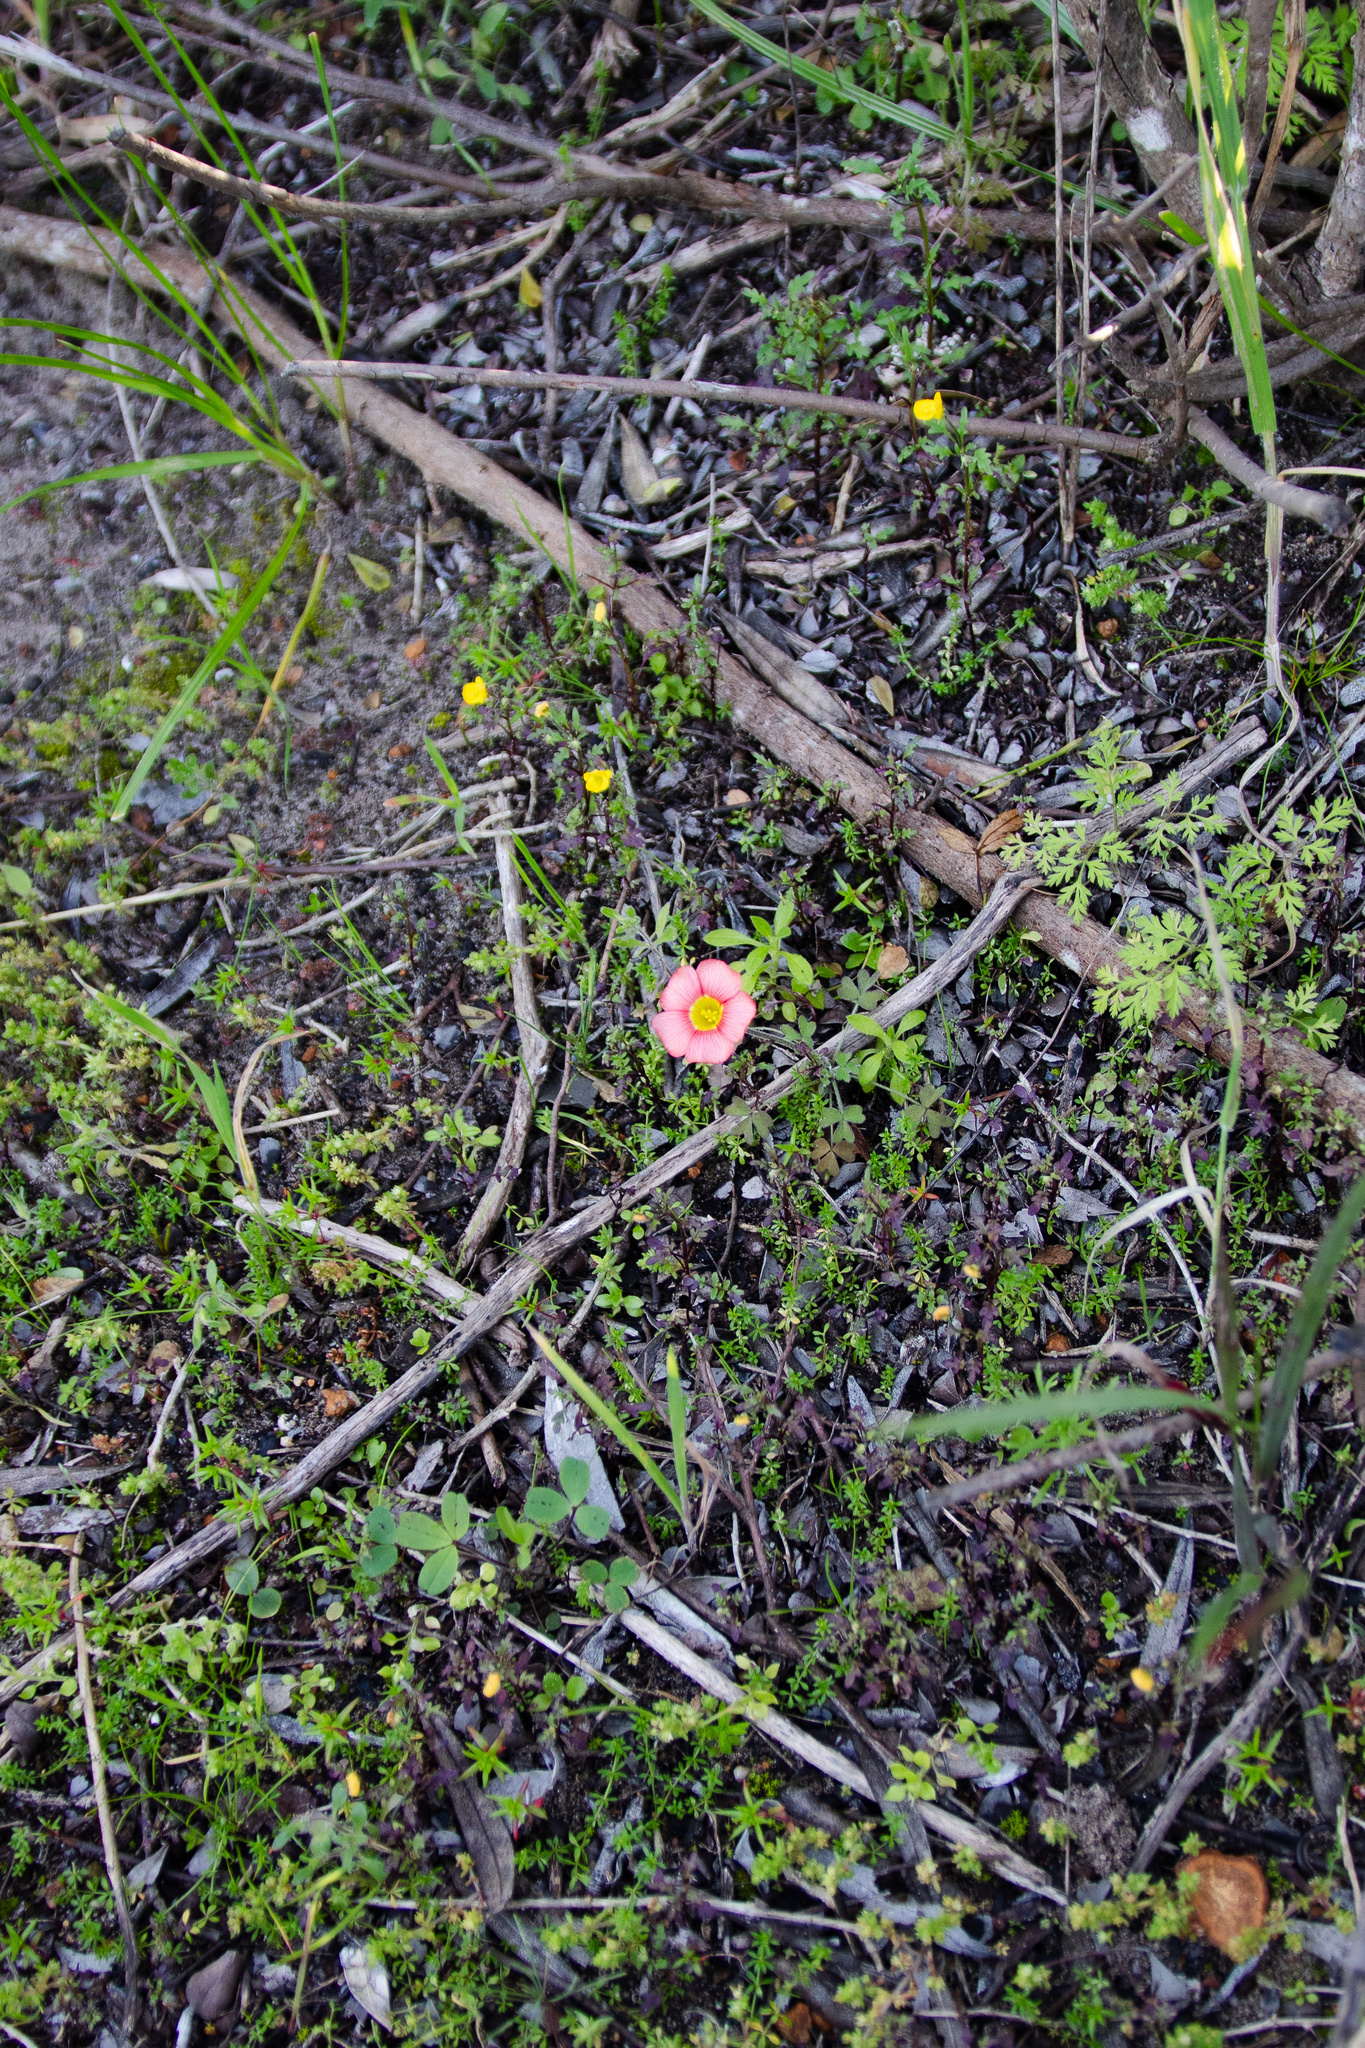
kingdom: Plantae
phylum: Tracheophyta
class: Magnoliopsida
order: Oxalidales
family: Oxalidaceae
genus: Oxalis
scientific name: Oxalis obtusa
